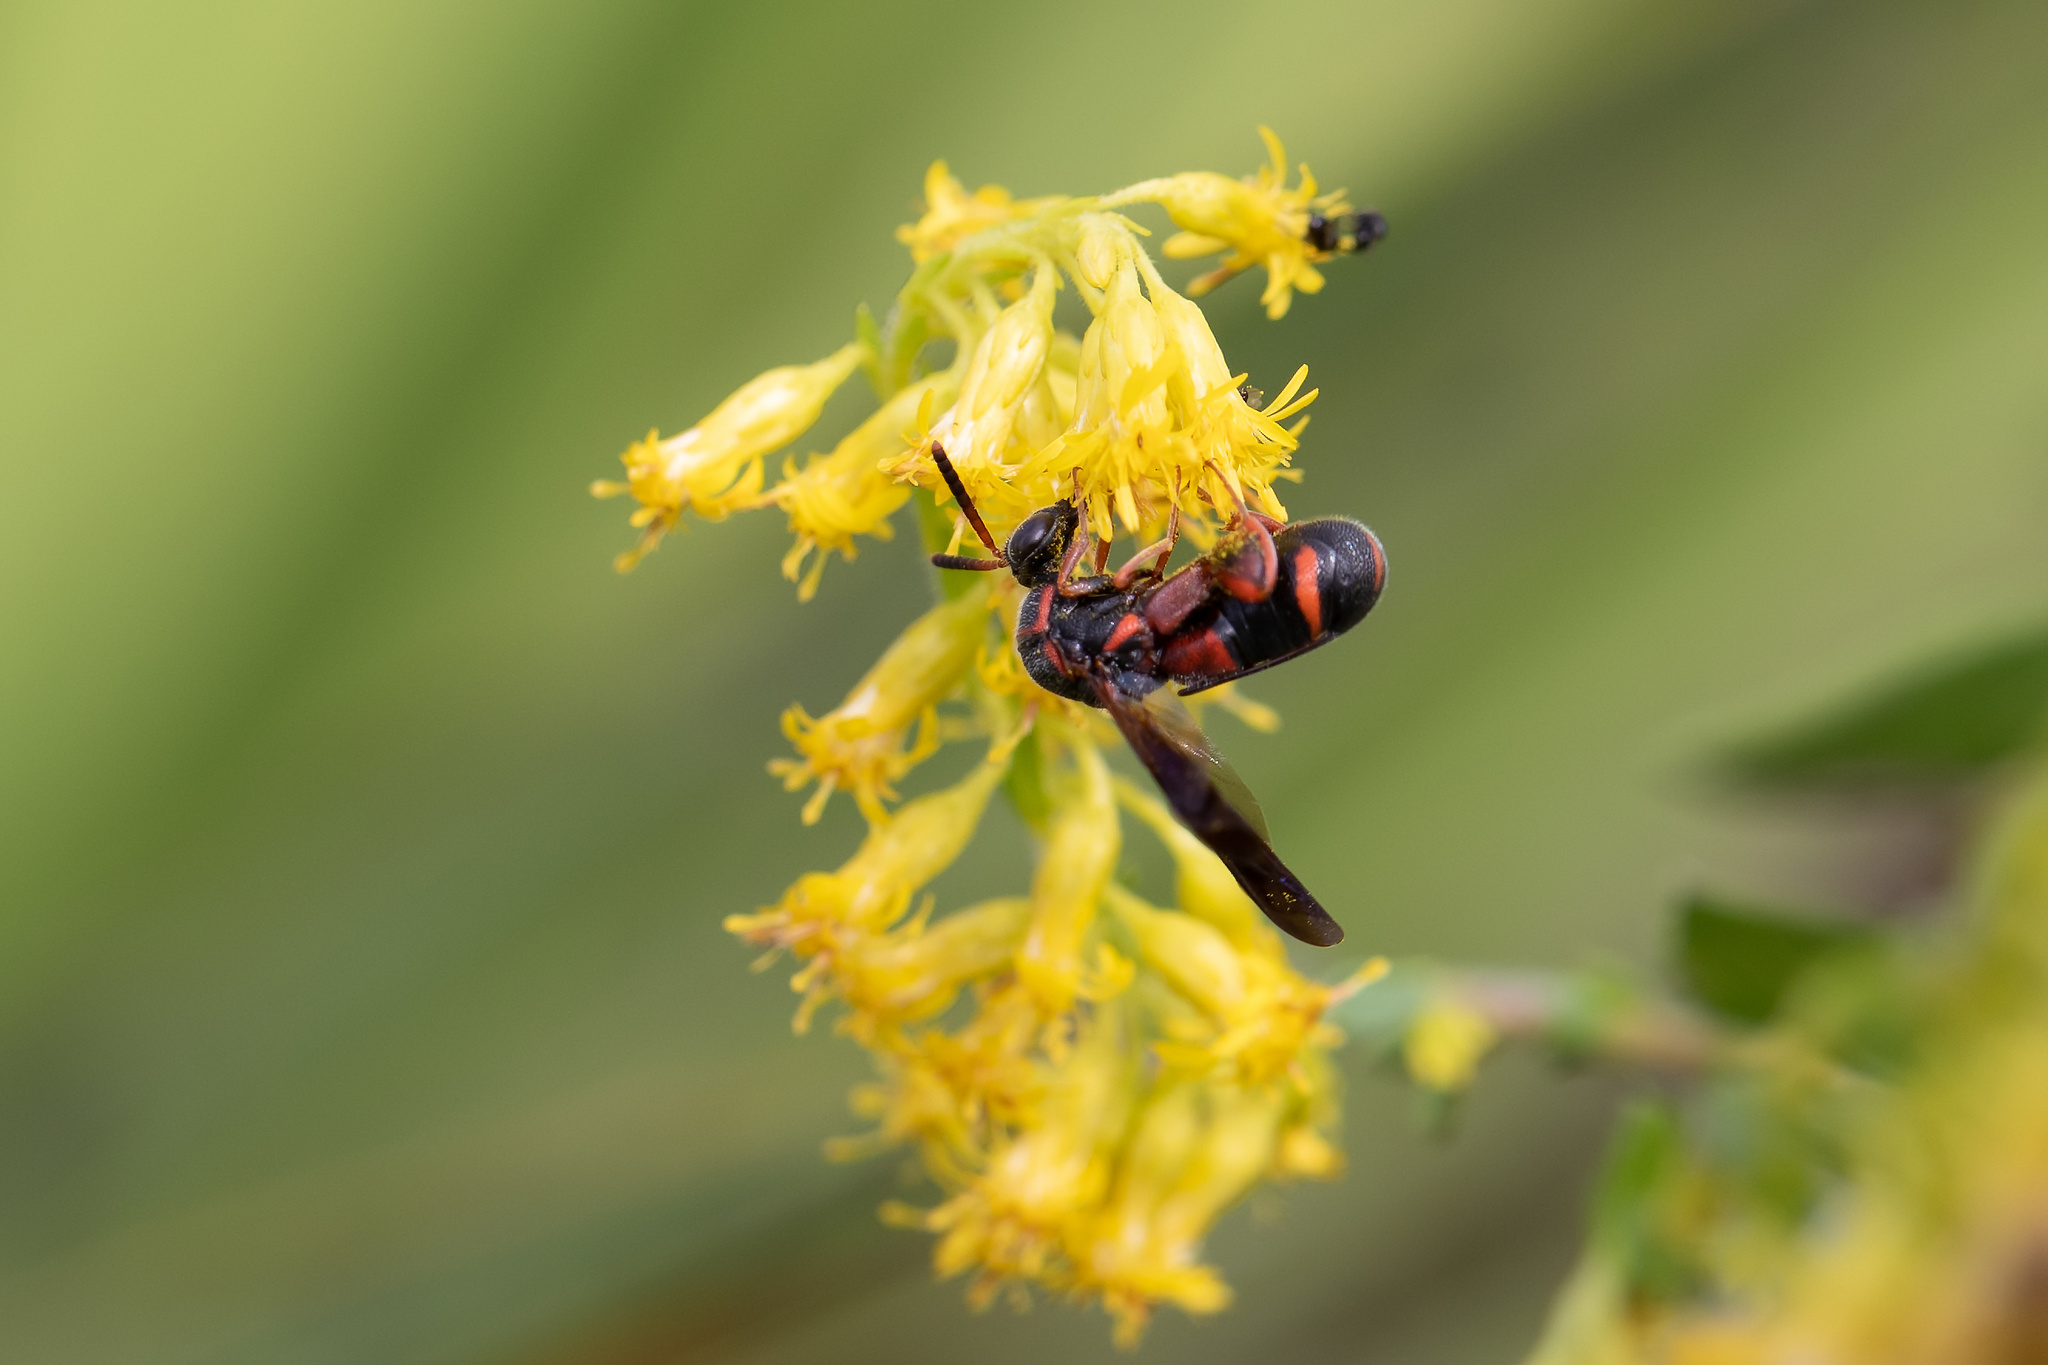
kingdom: Animalia
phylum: Arthropoda
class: Insecta
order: Hymenoptera
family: Leucospidae
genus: Leucospis
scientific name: Leucospis affinis
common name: Wasp
